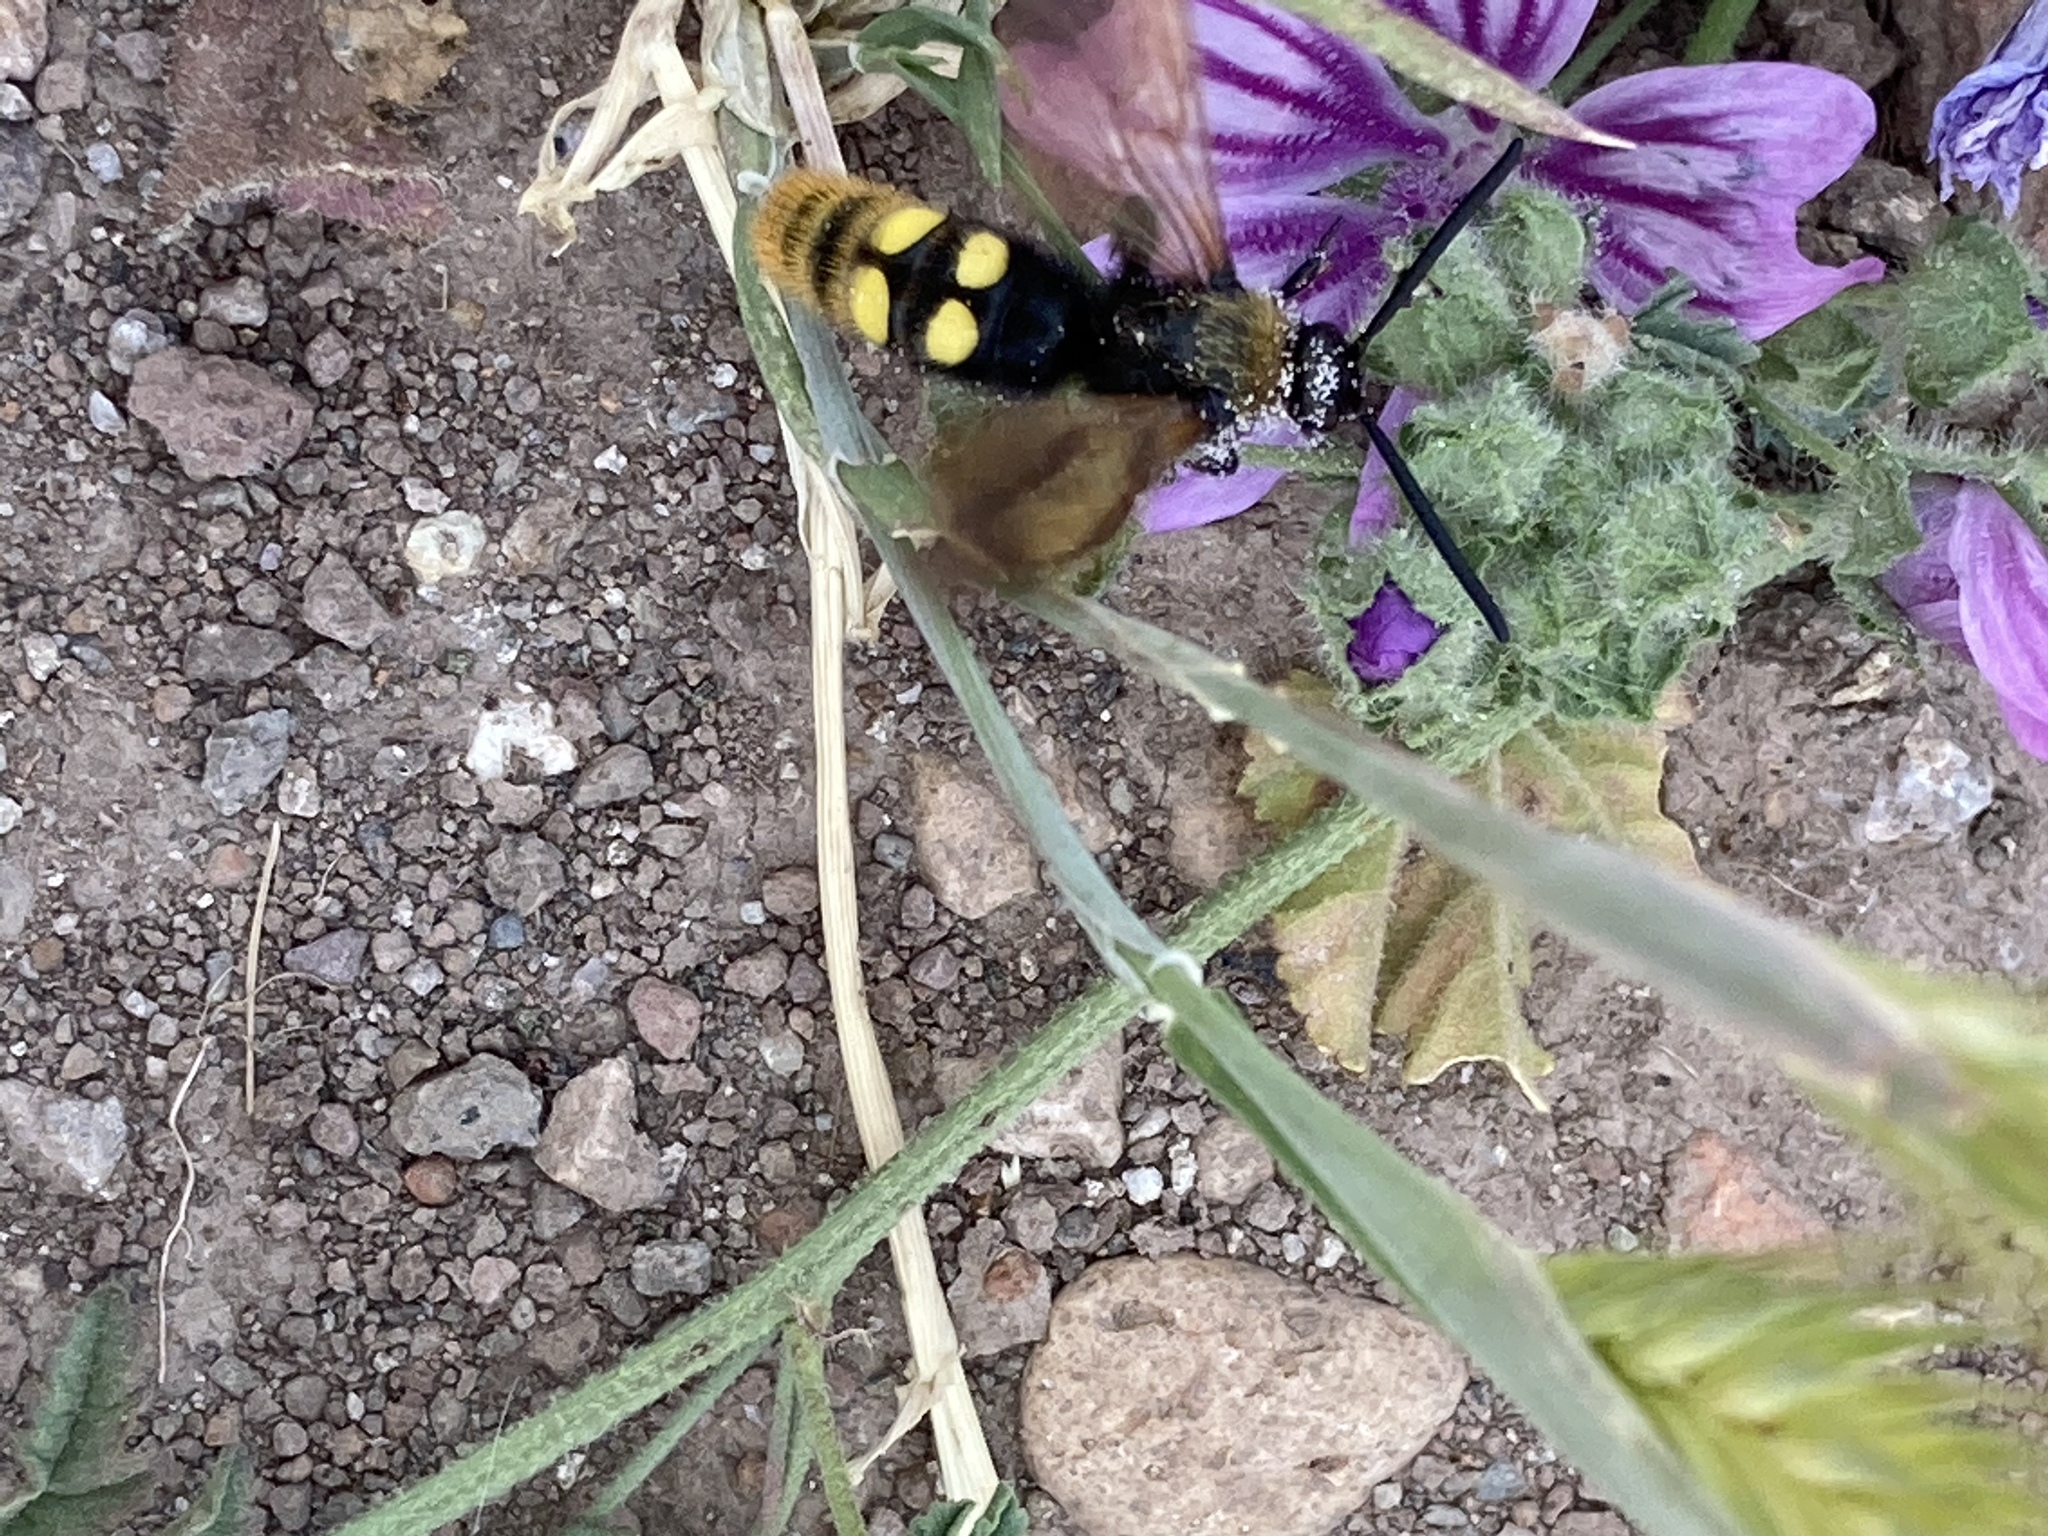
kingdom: Animalia
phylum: Arthropoda
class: Insecta
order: Hymenoptera
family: Scoliidae
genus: Megascolia
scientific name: Megascolia maculata
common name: Mammoth wasp
